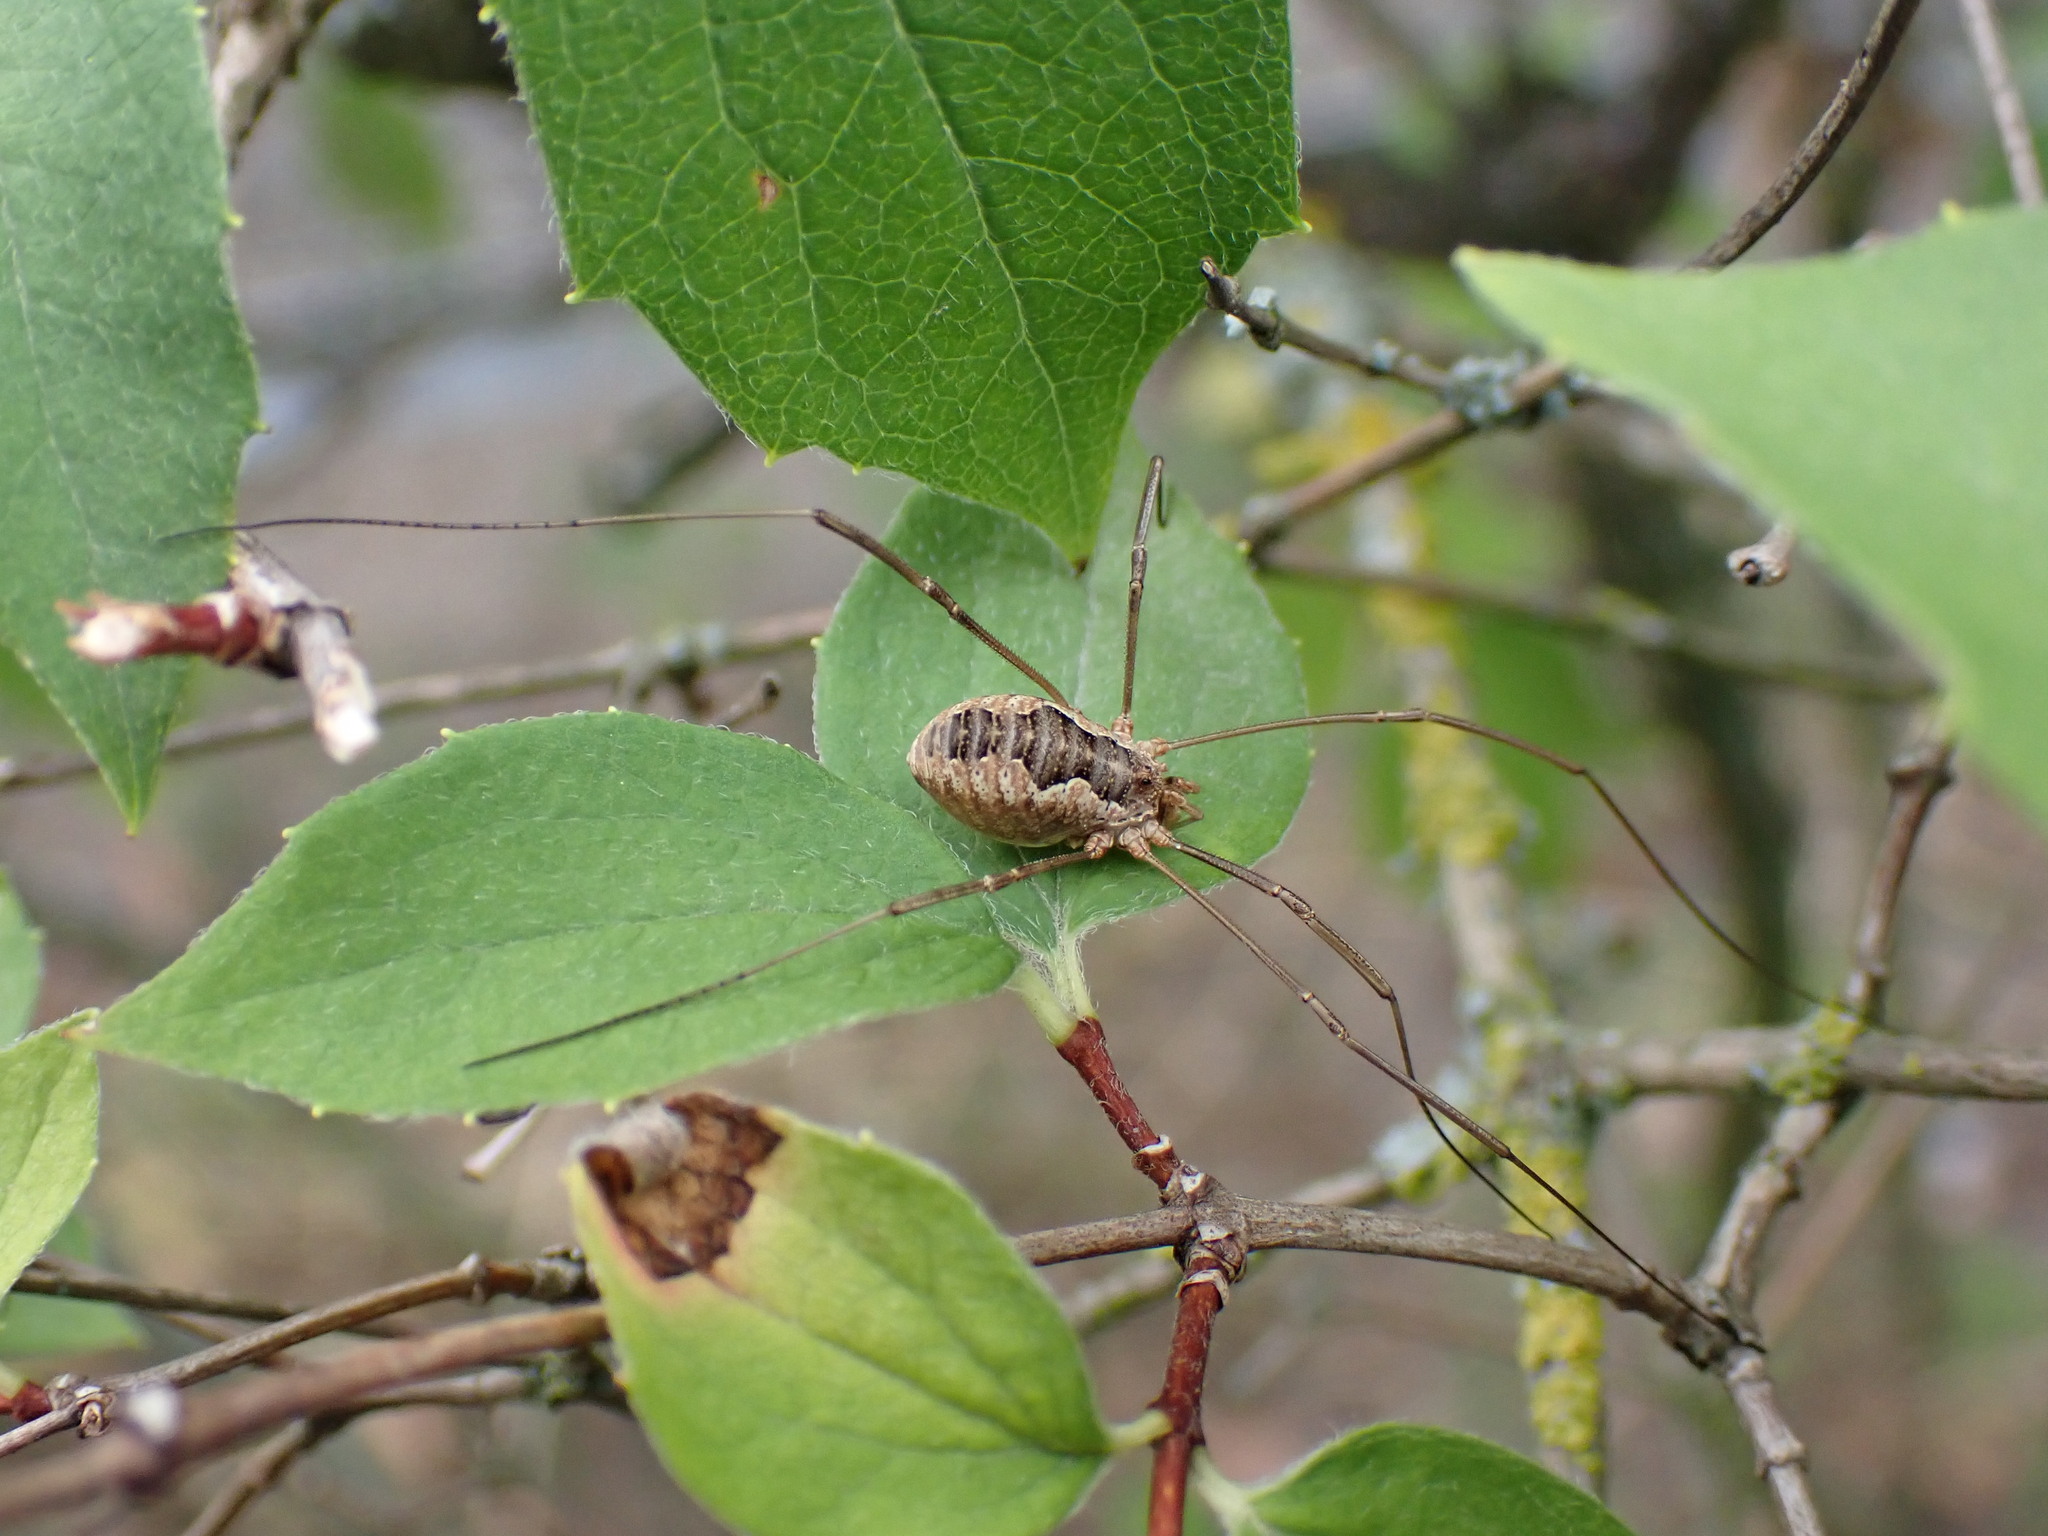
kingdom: Animalia
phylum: Arthropoda
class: Arachnida
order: Opiliones
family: Phalangiidae
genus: Phalangium
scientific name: Phalangium opilio
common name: Daddy longleg
